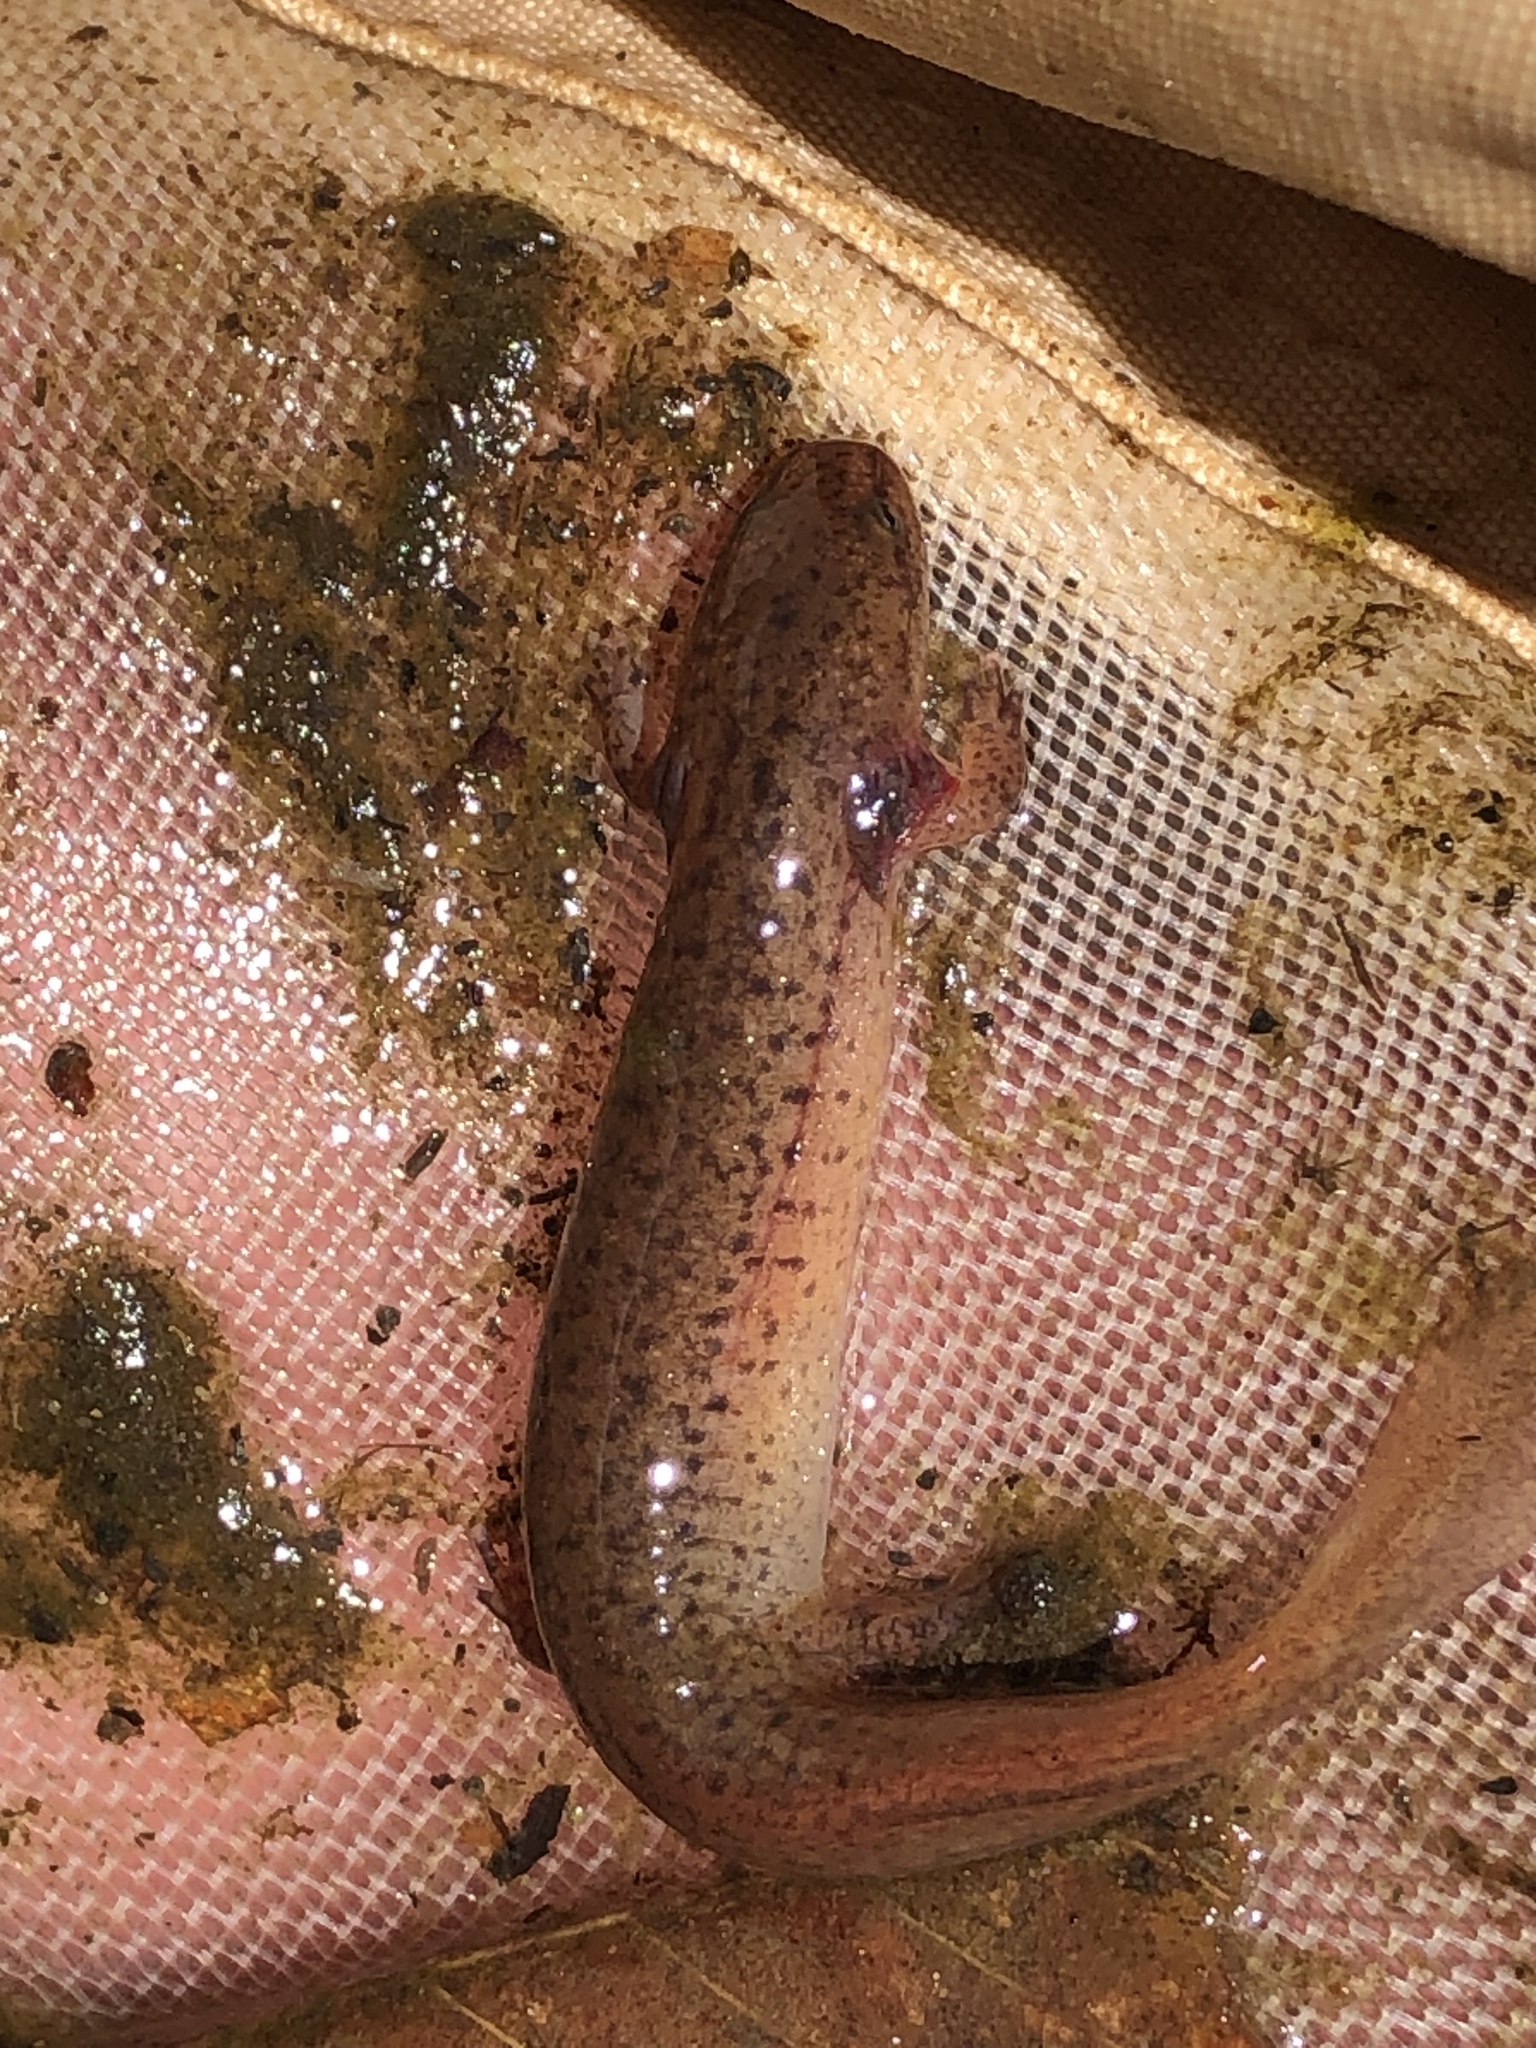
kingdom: Animalia
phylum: Chordata
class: Amphibia
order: Caudata
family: Plethodontidae
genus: Pseudotriton
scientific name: Pseudotriton ruber
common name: Red salamander
